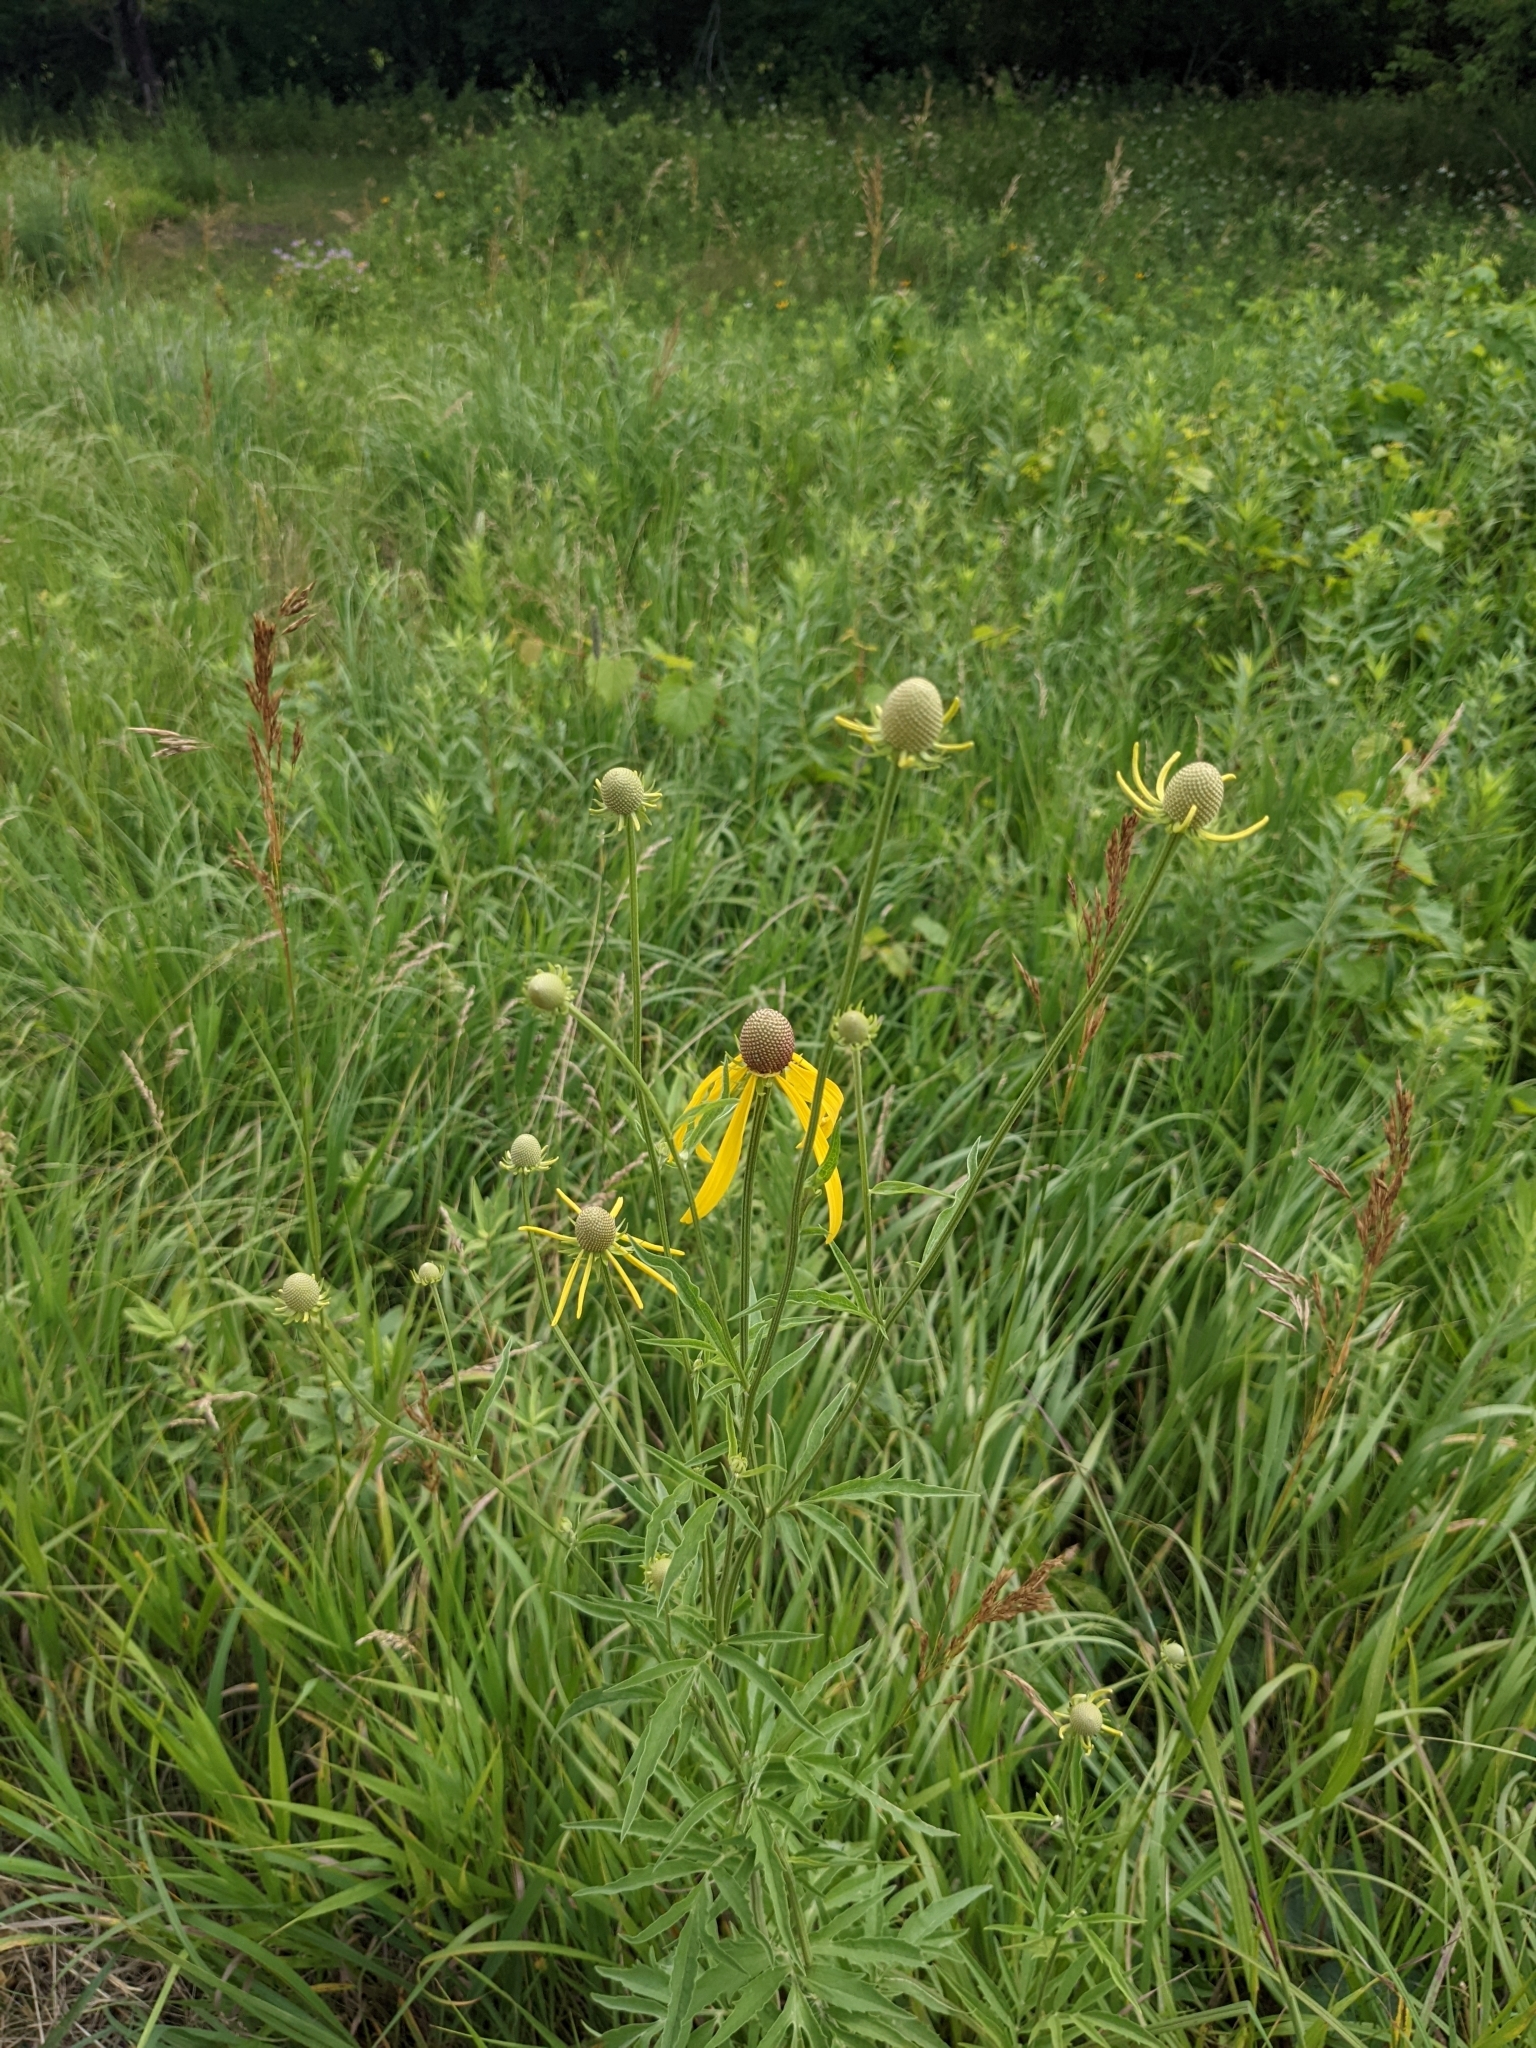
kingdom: Plantae
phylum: Tracheophyta
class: Magnoliopsida
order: Asterales
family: Asteraceae
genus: Ratibida
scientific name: Ratibida pinnata
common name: Drooping prairie-coneflower
